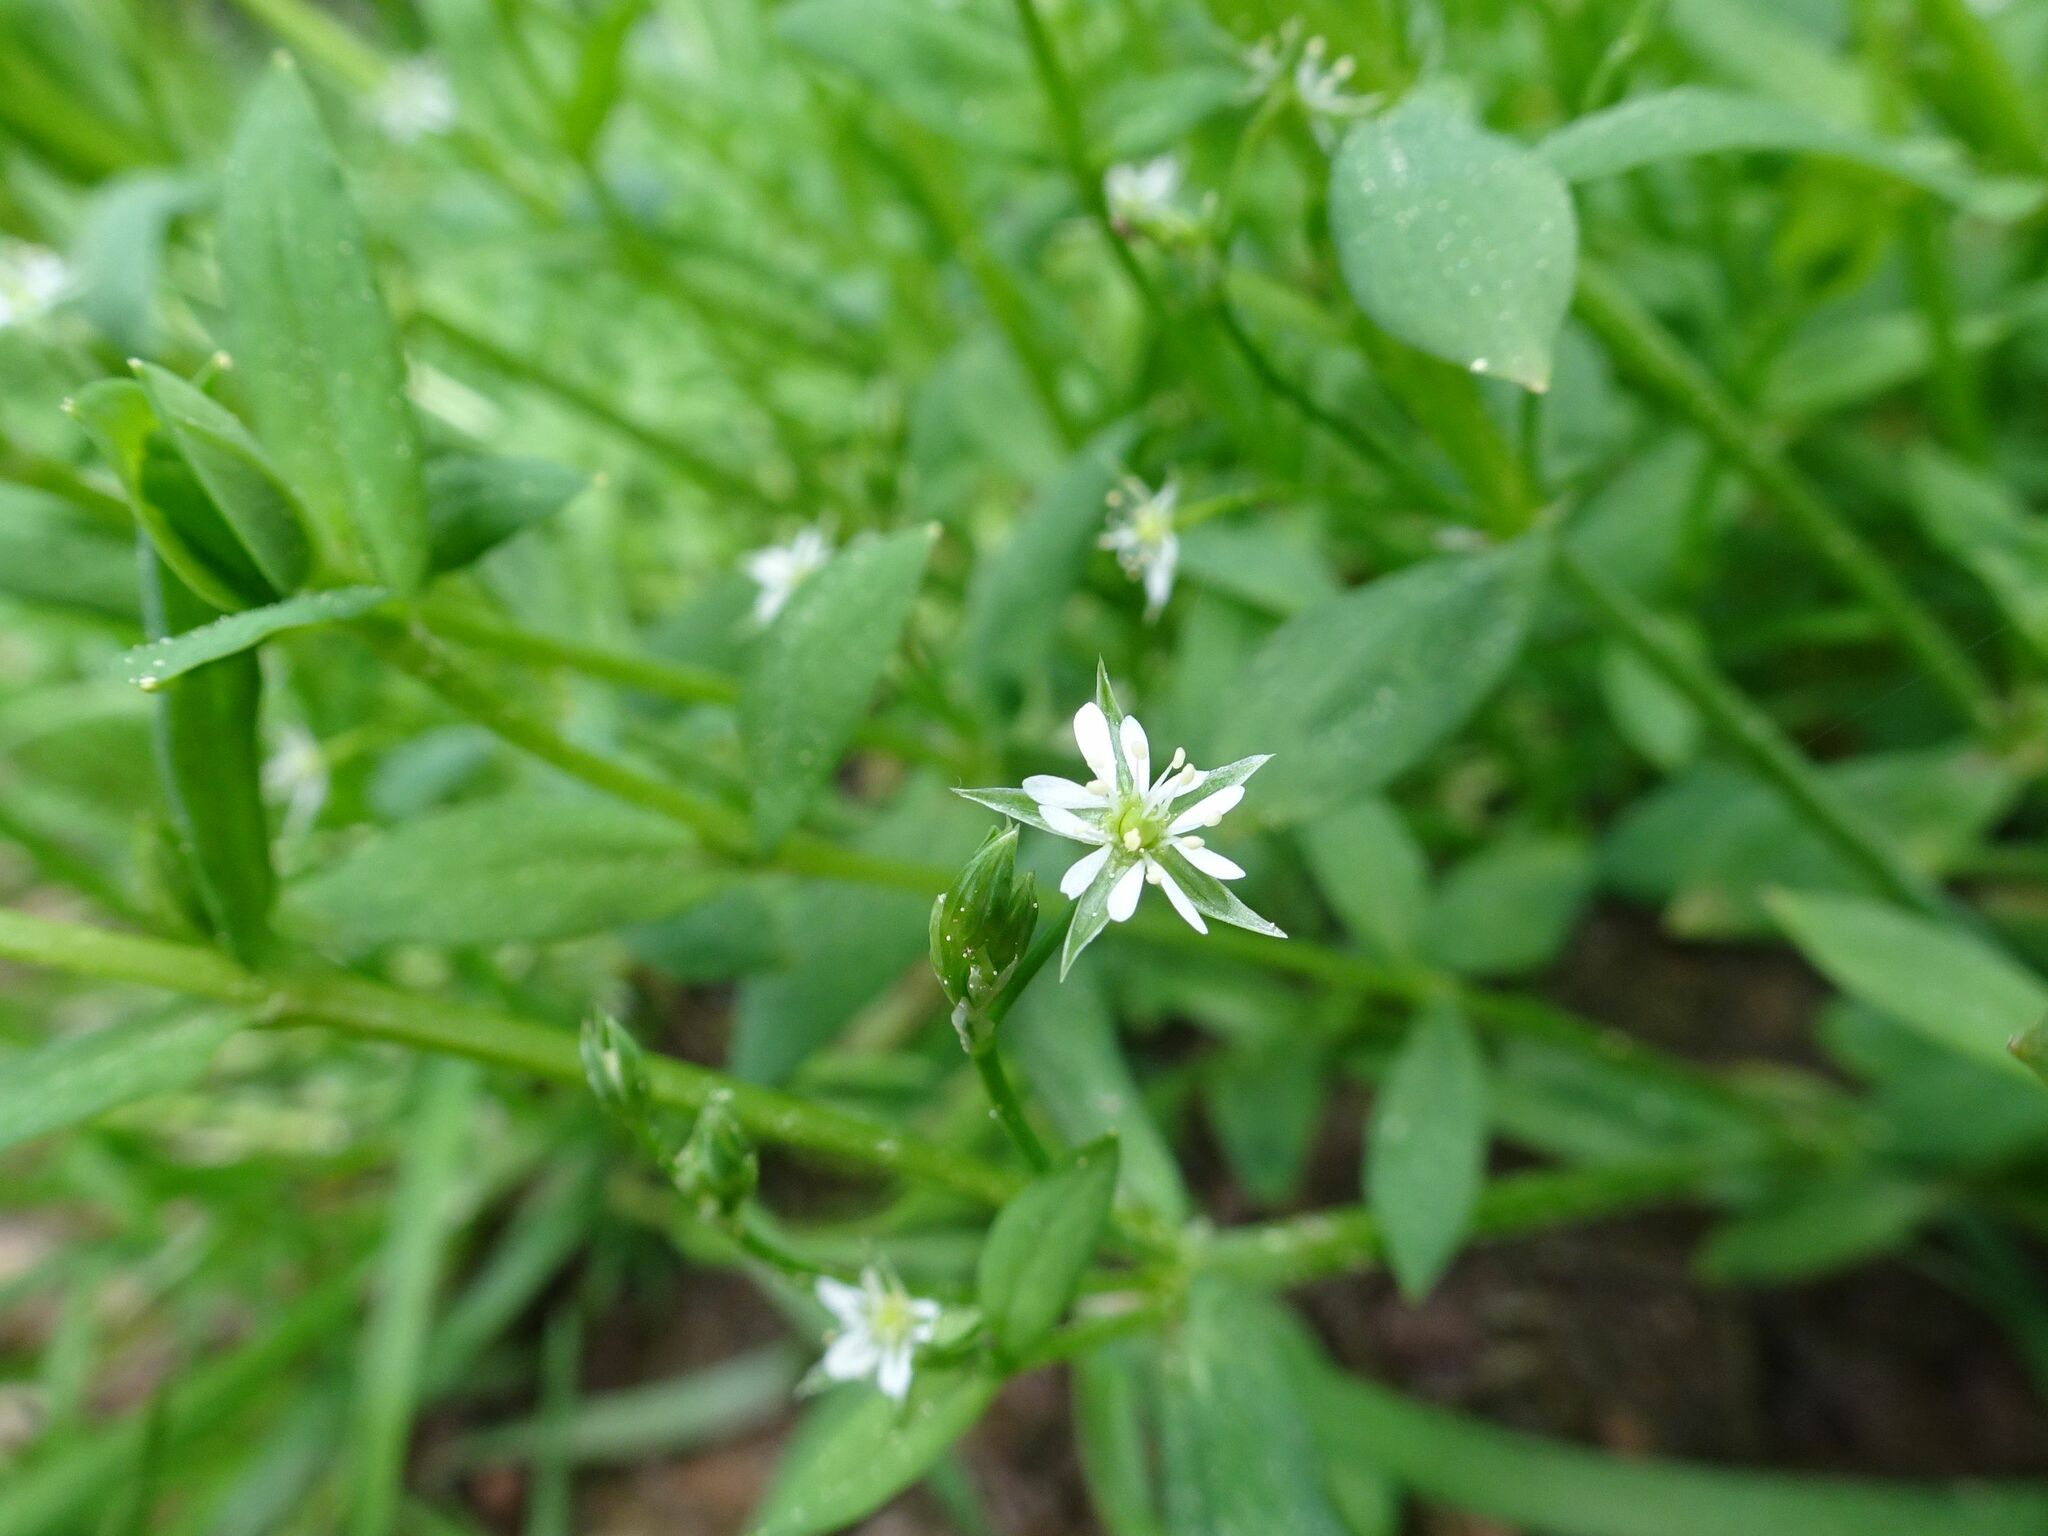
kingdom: Plantae
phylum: Tracheophyta
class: Magnoliopsida
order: Caryophyllales
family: Caryophyllaceae
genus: Stellaria
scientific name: Stellaria alsine
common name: Bog stitchwort
